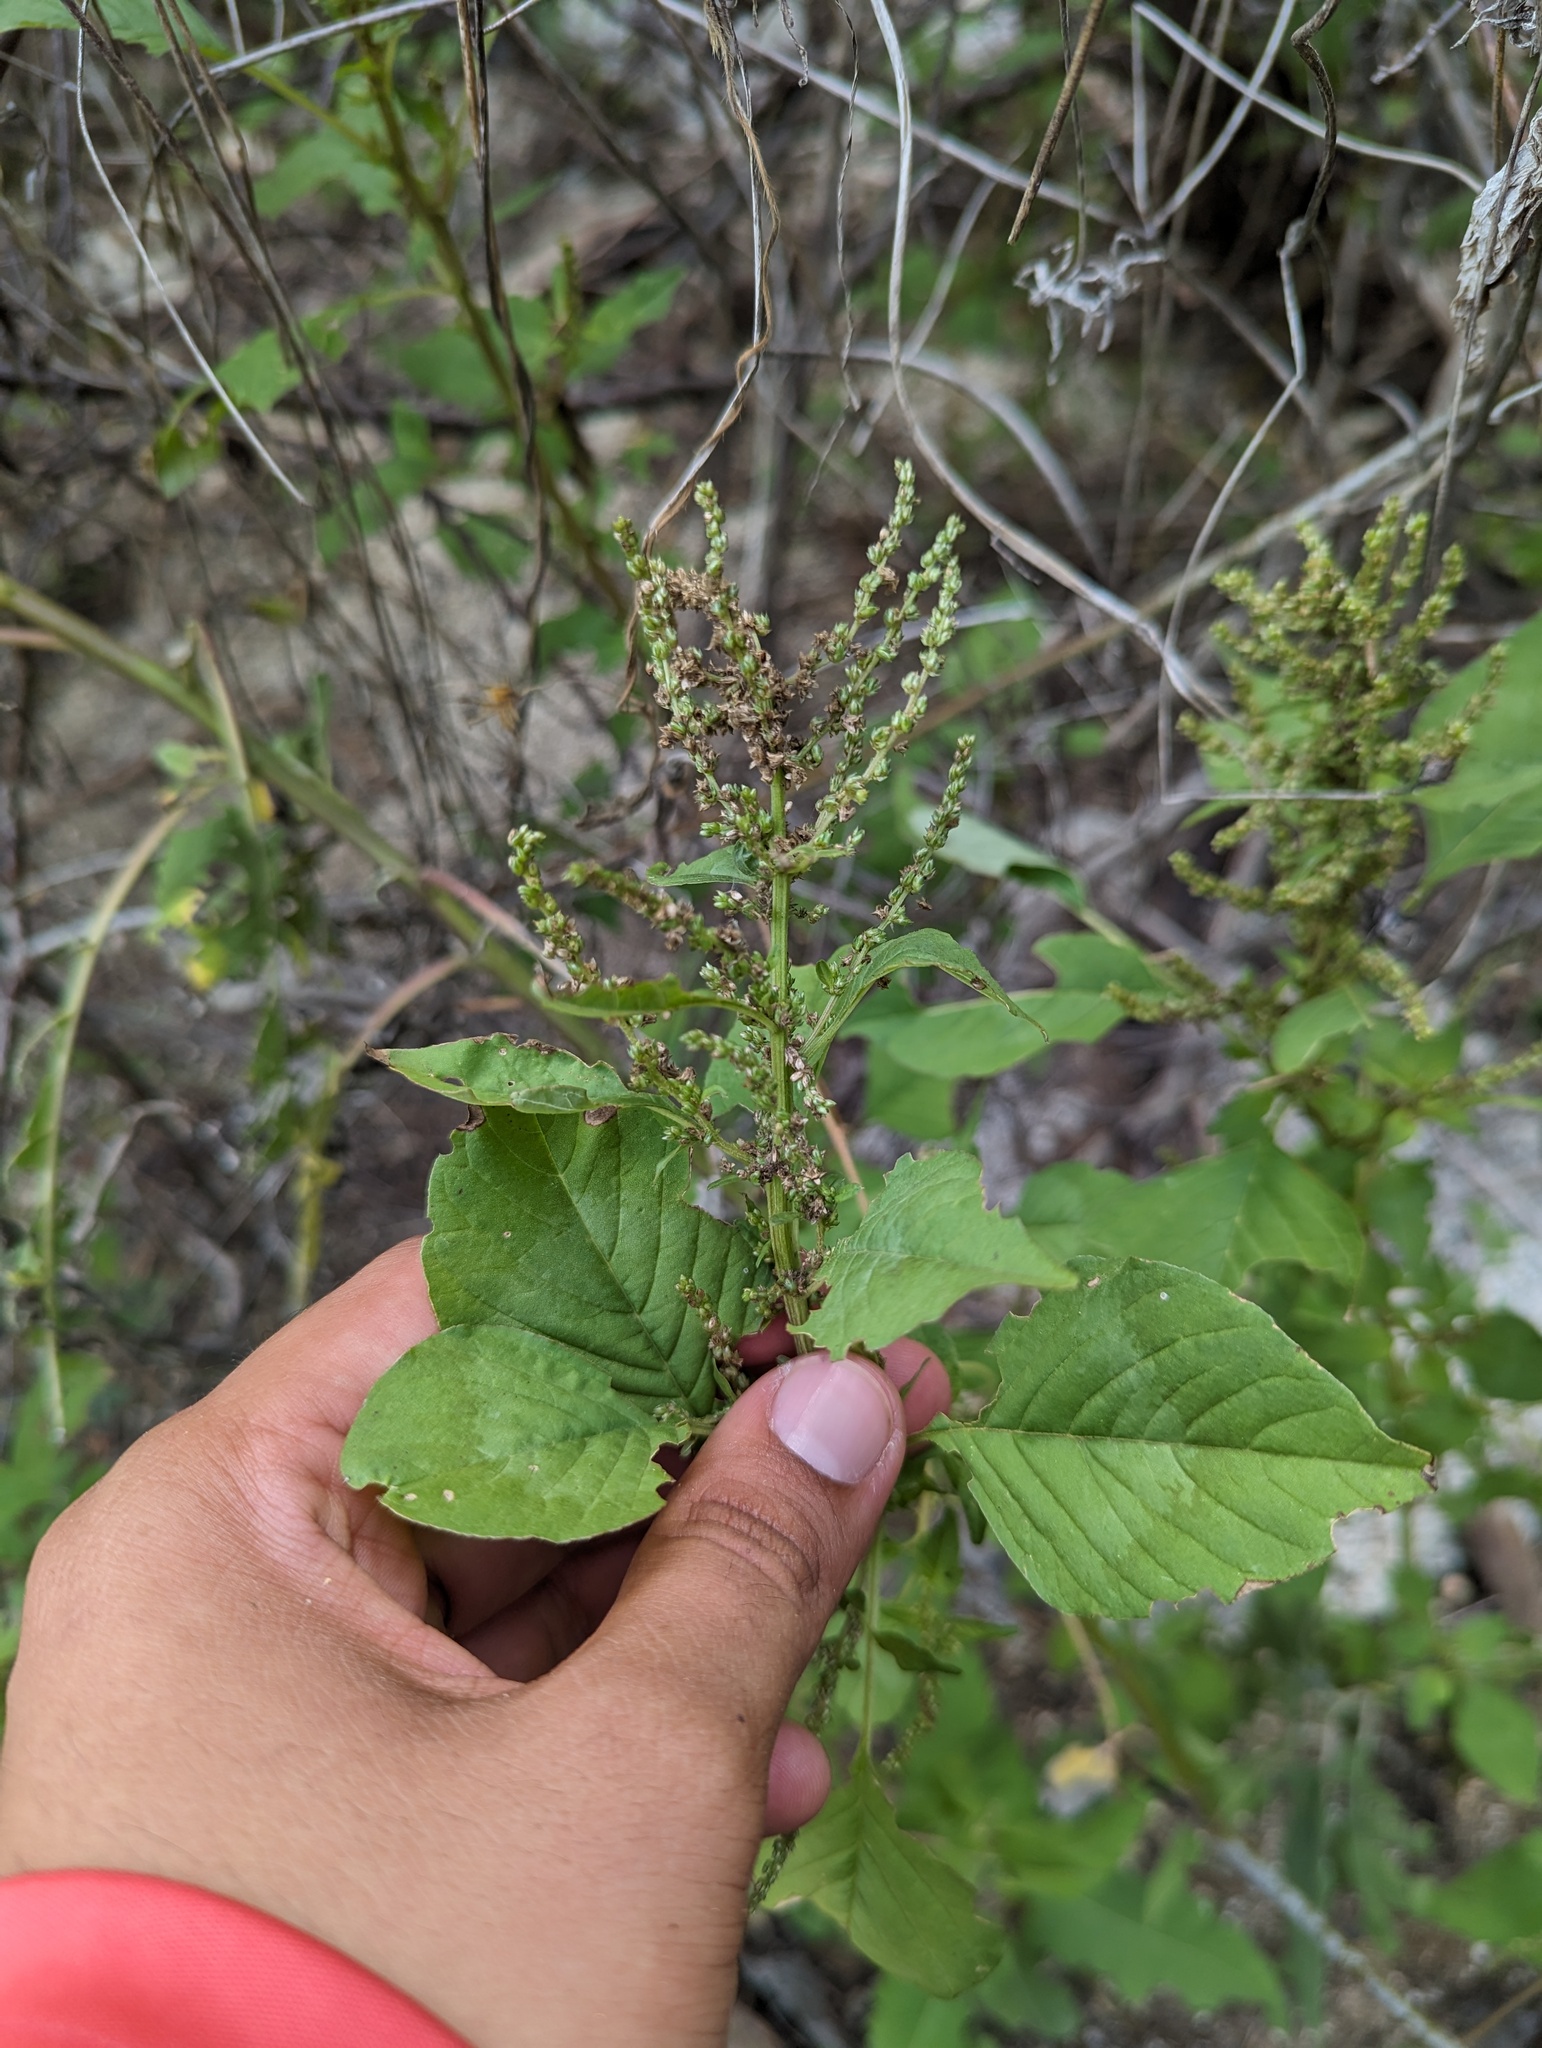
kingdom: Plantae
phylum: Tracheophyta
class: Magnoliopsida
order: Caryophyllales
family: Amaranthaceae
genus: Celosia
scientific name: Celosia floribunda
